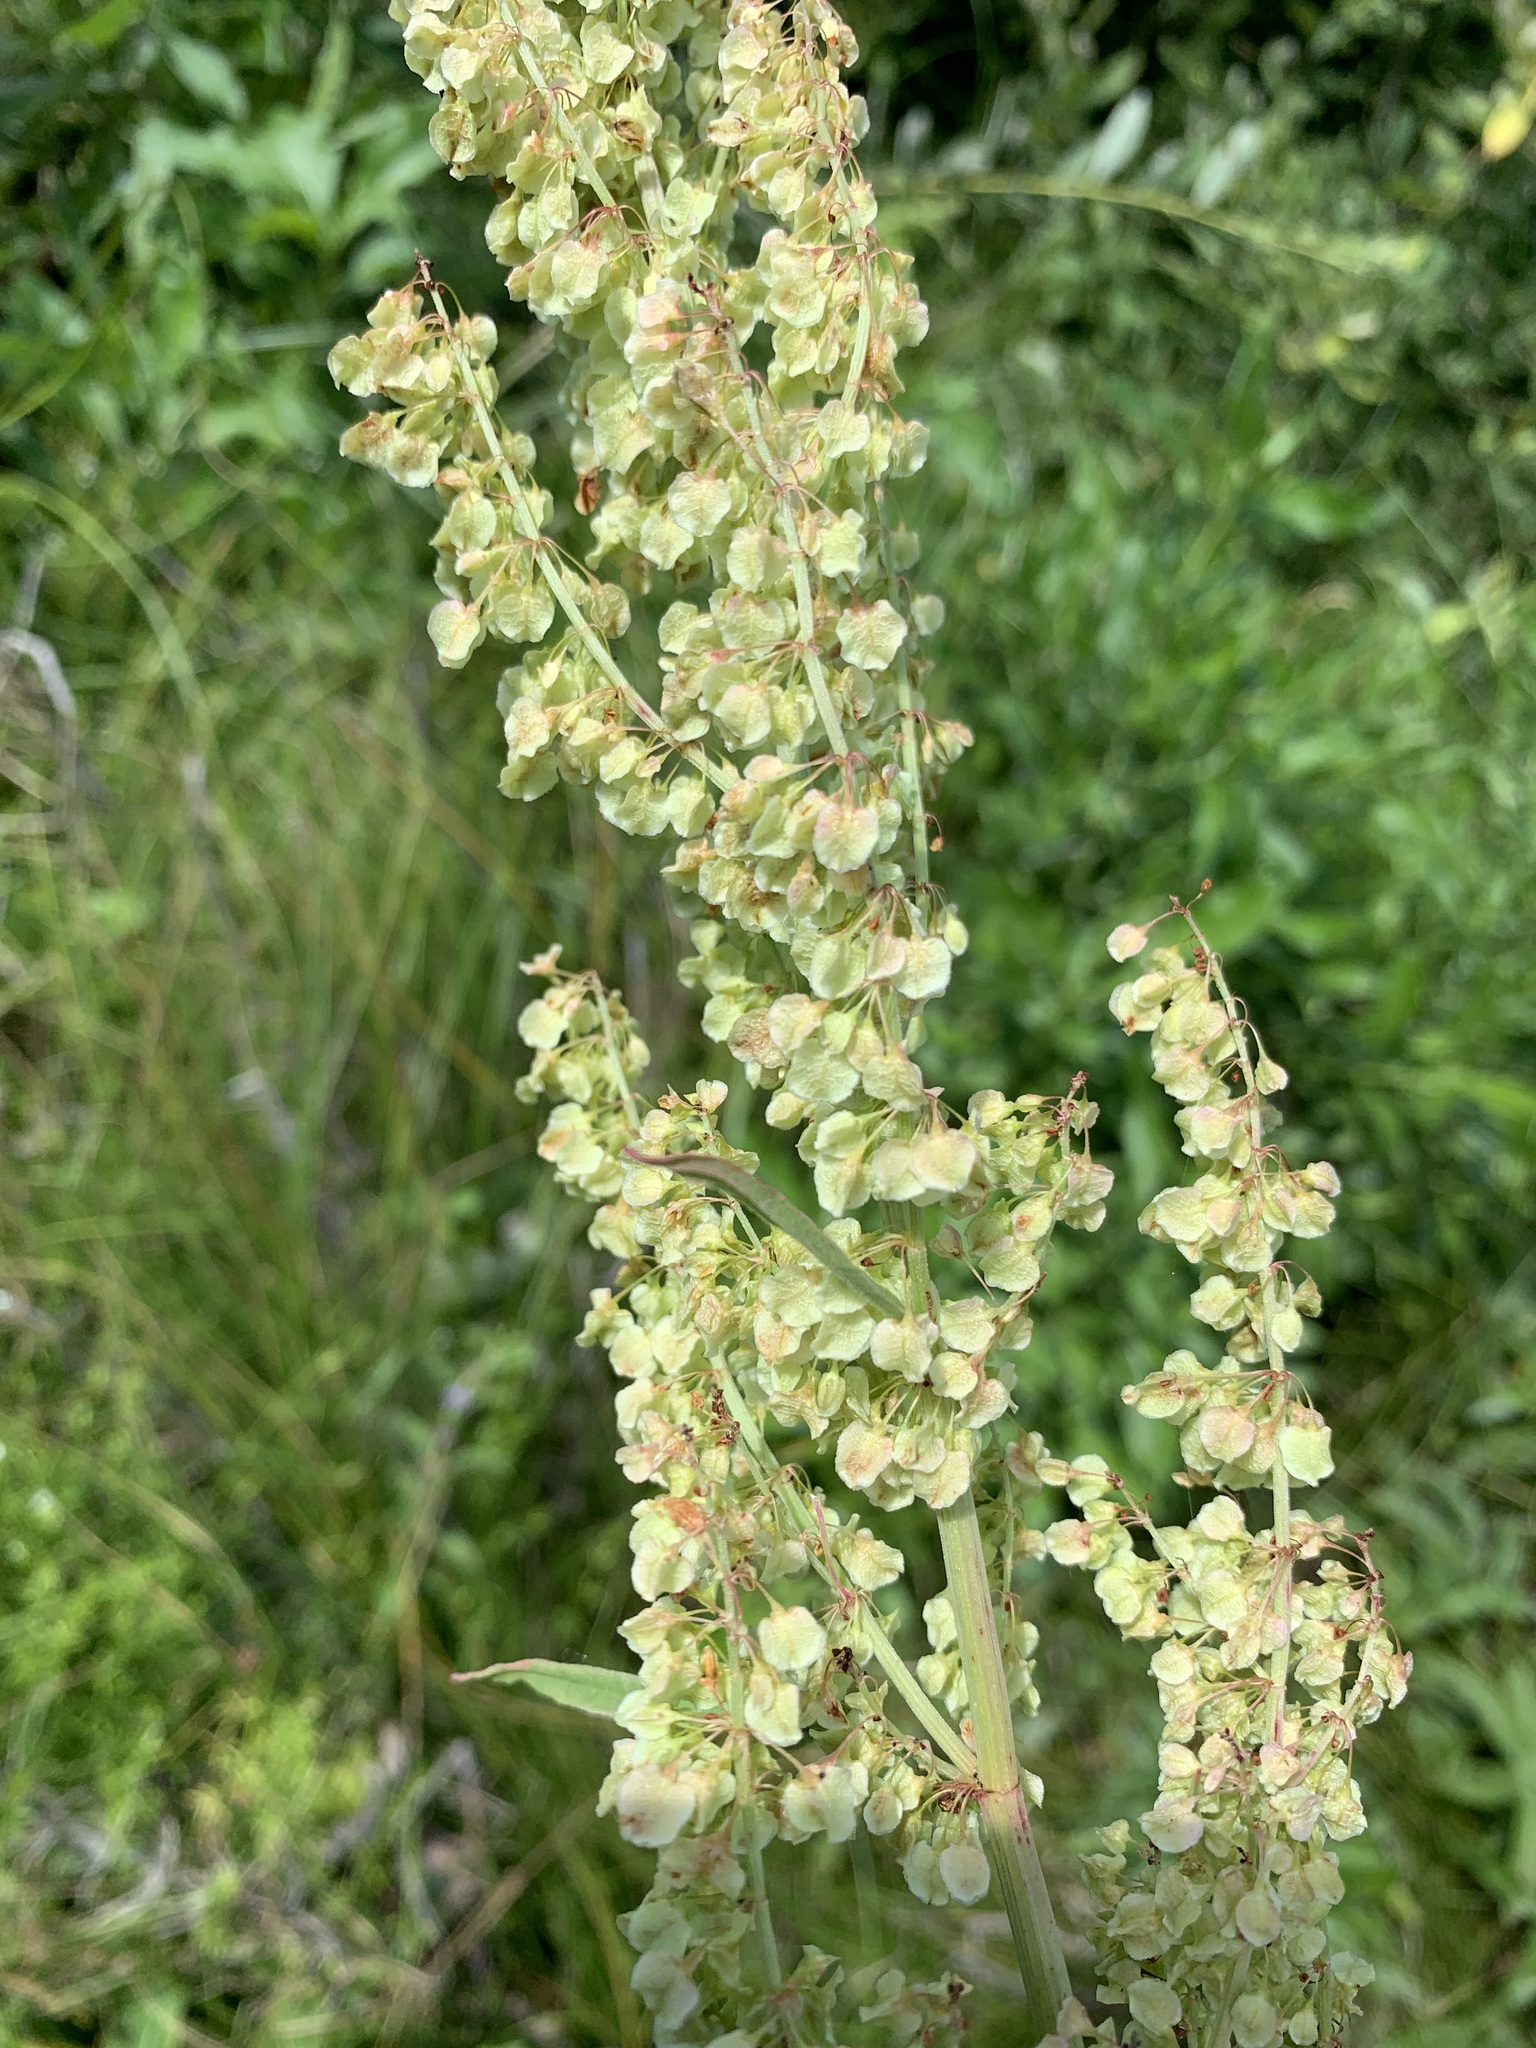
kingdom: Plantae
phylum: Tracheophyta
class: Magnoliopsida
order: Caryophyllales
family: Polygonaceae
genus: Rumex
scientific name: Rumex aquaticus
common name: Scottish dock
